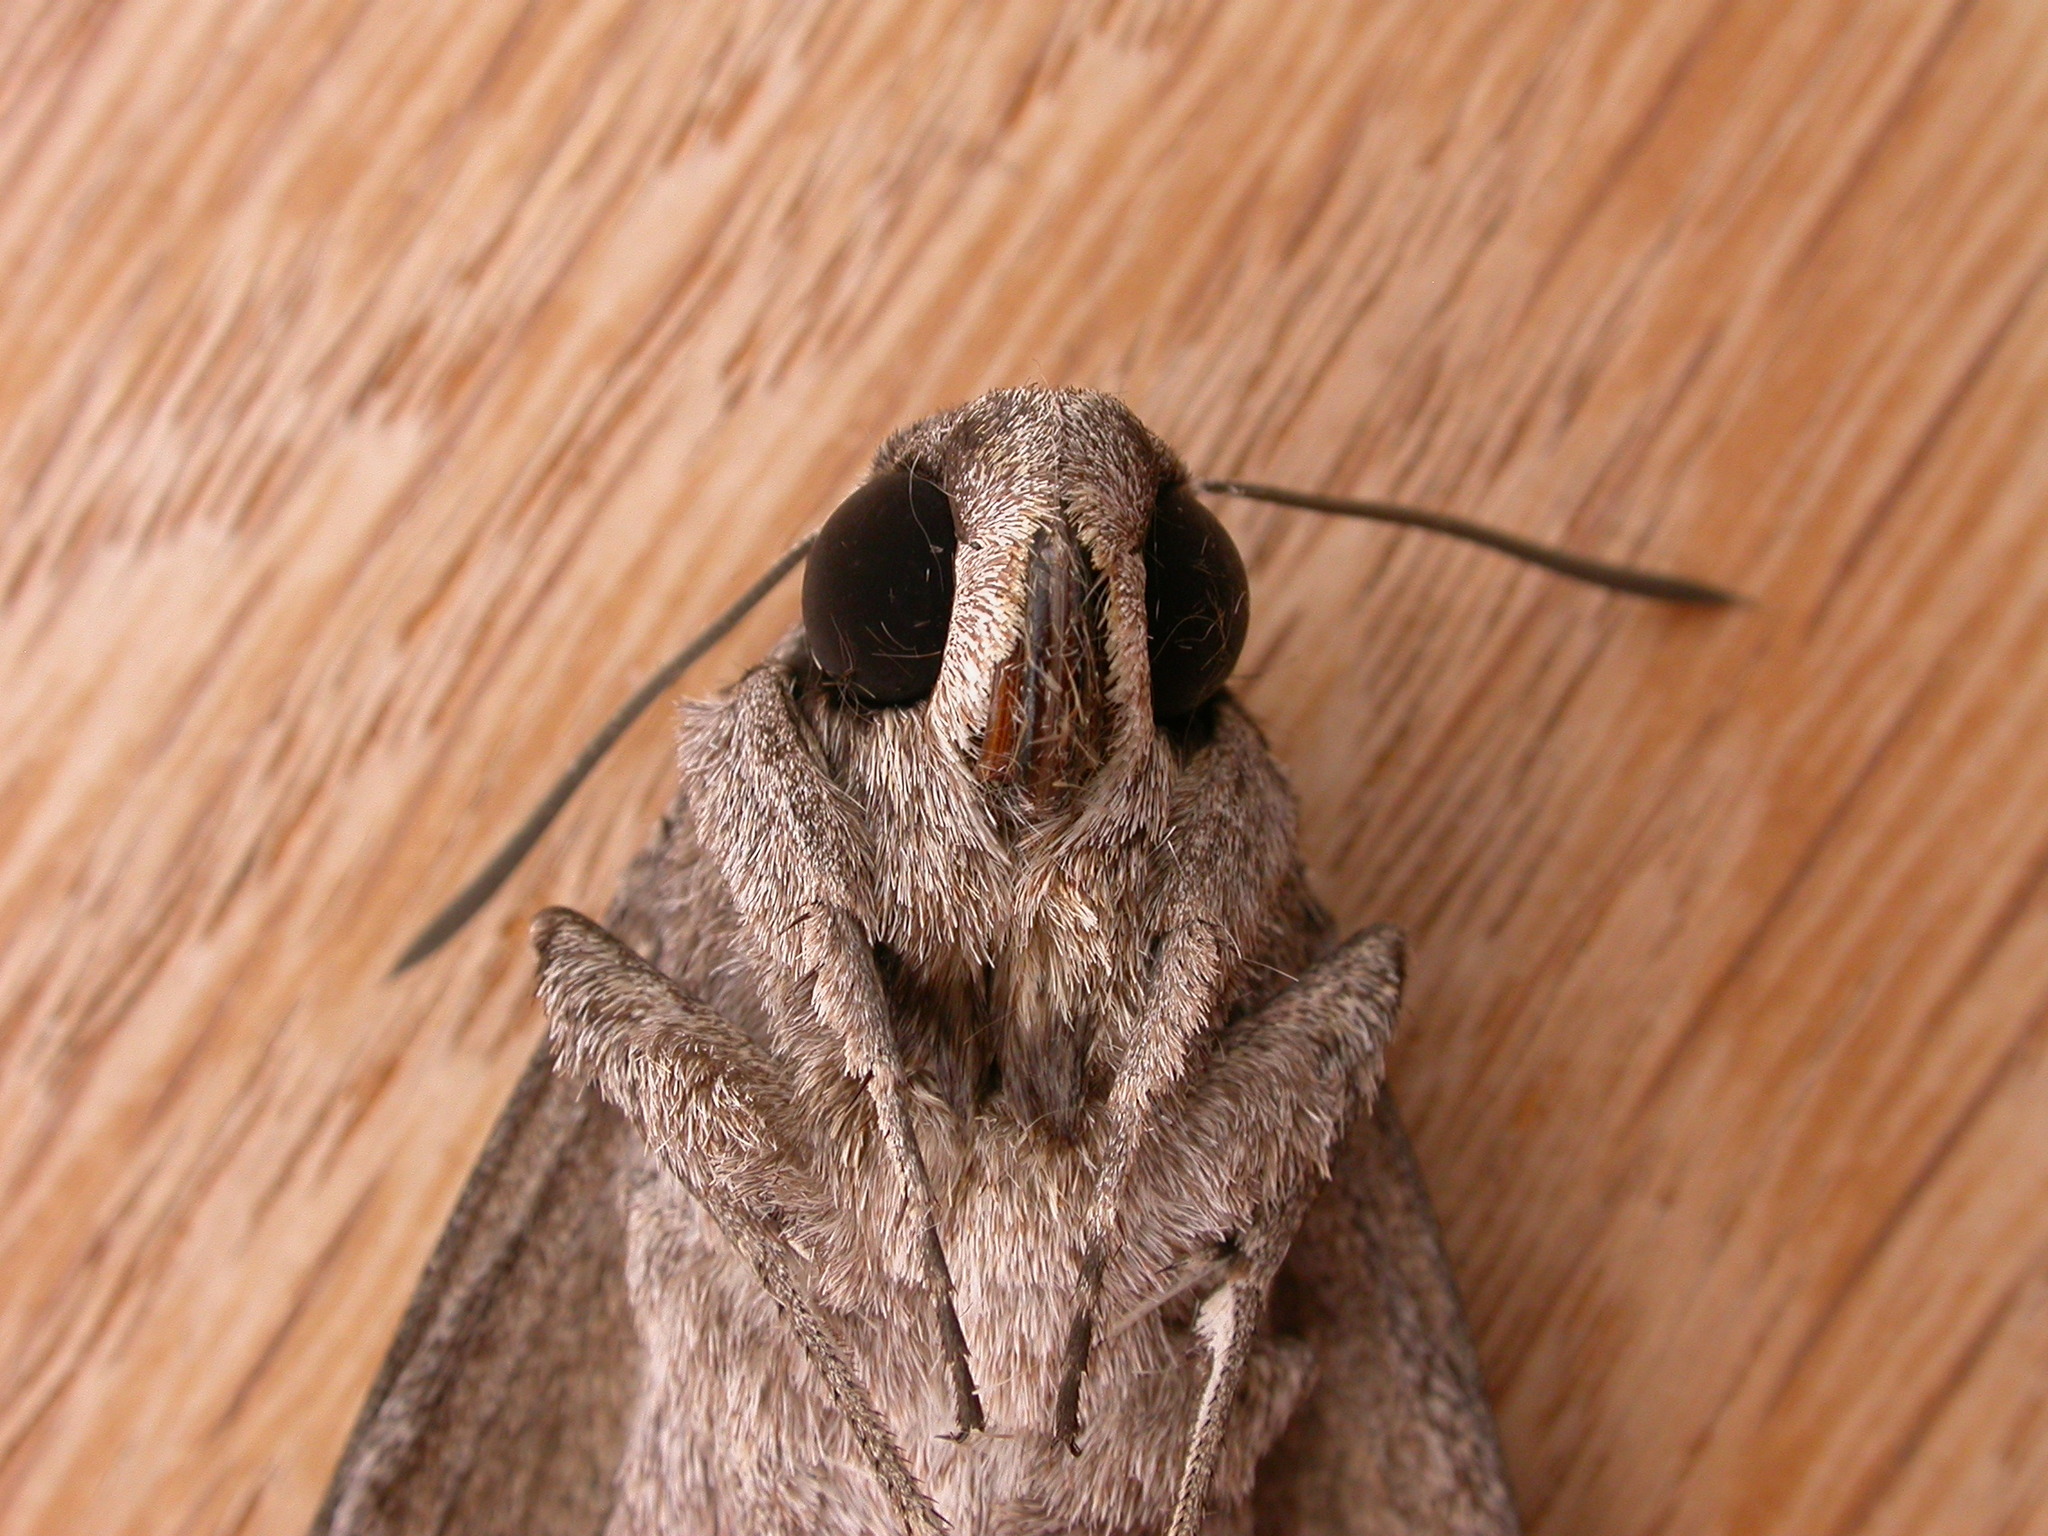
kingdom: Animalia
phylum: Arthropoda
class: Insecta
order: Lepidoptera
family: Sphingidae
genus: Agrius
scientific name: Agrius convolvuli
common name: Convolvulus hawkmoth
